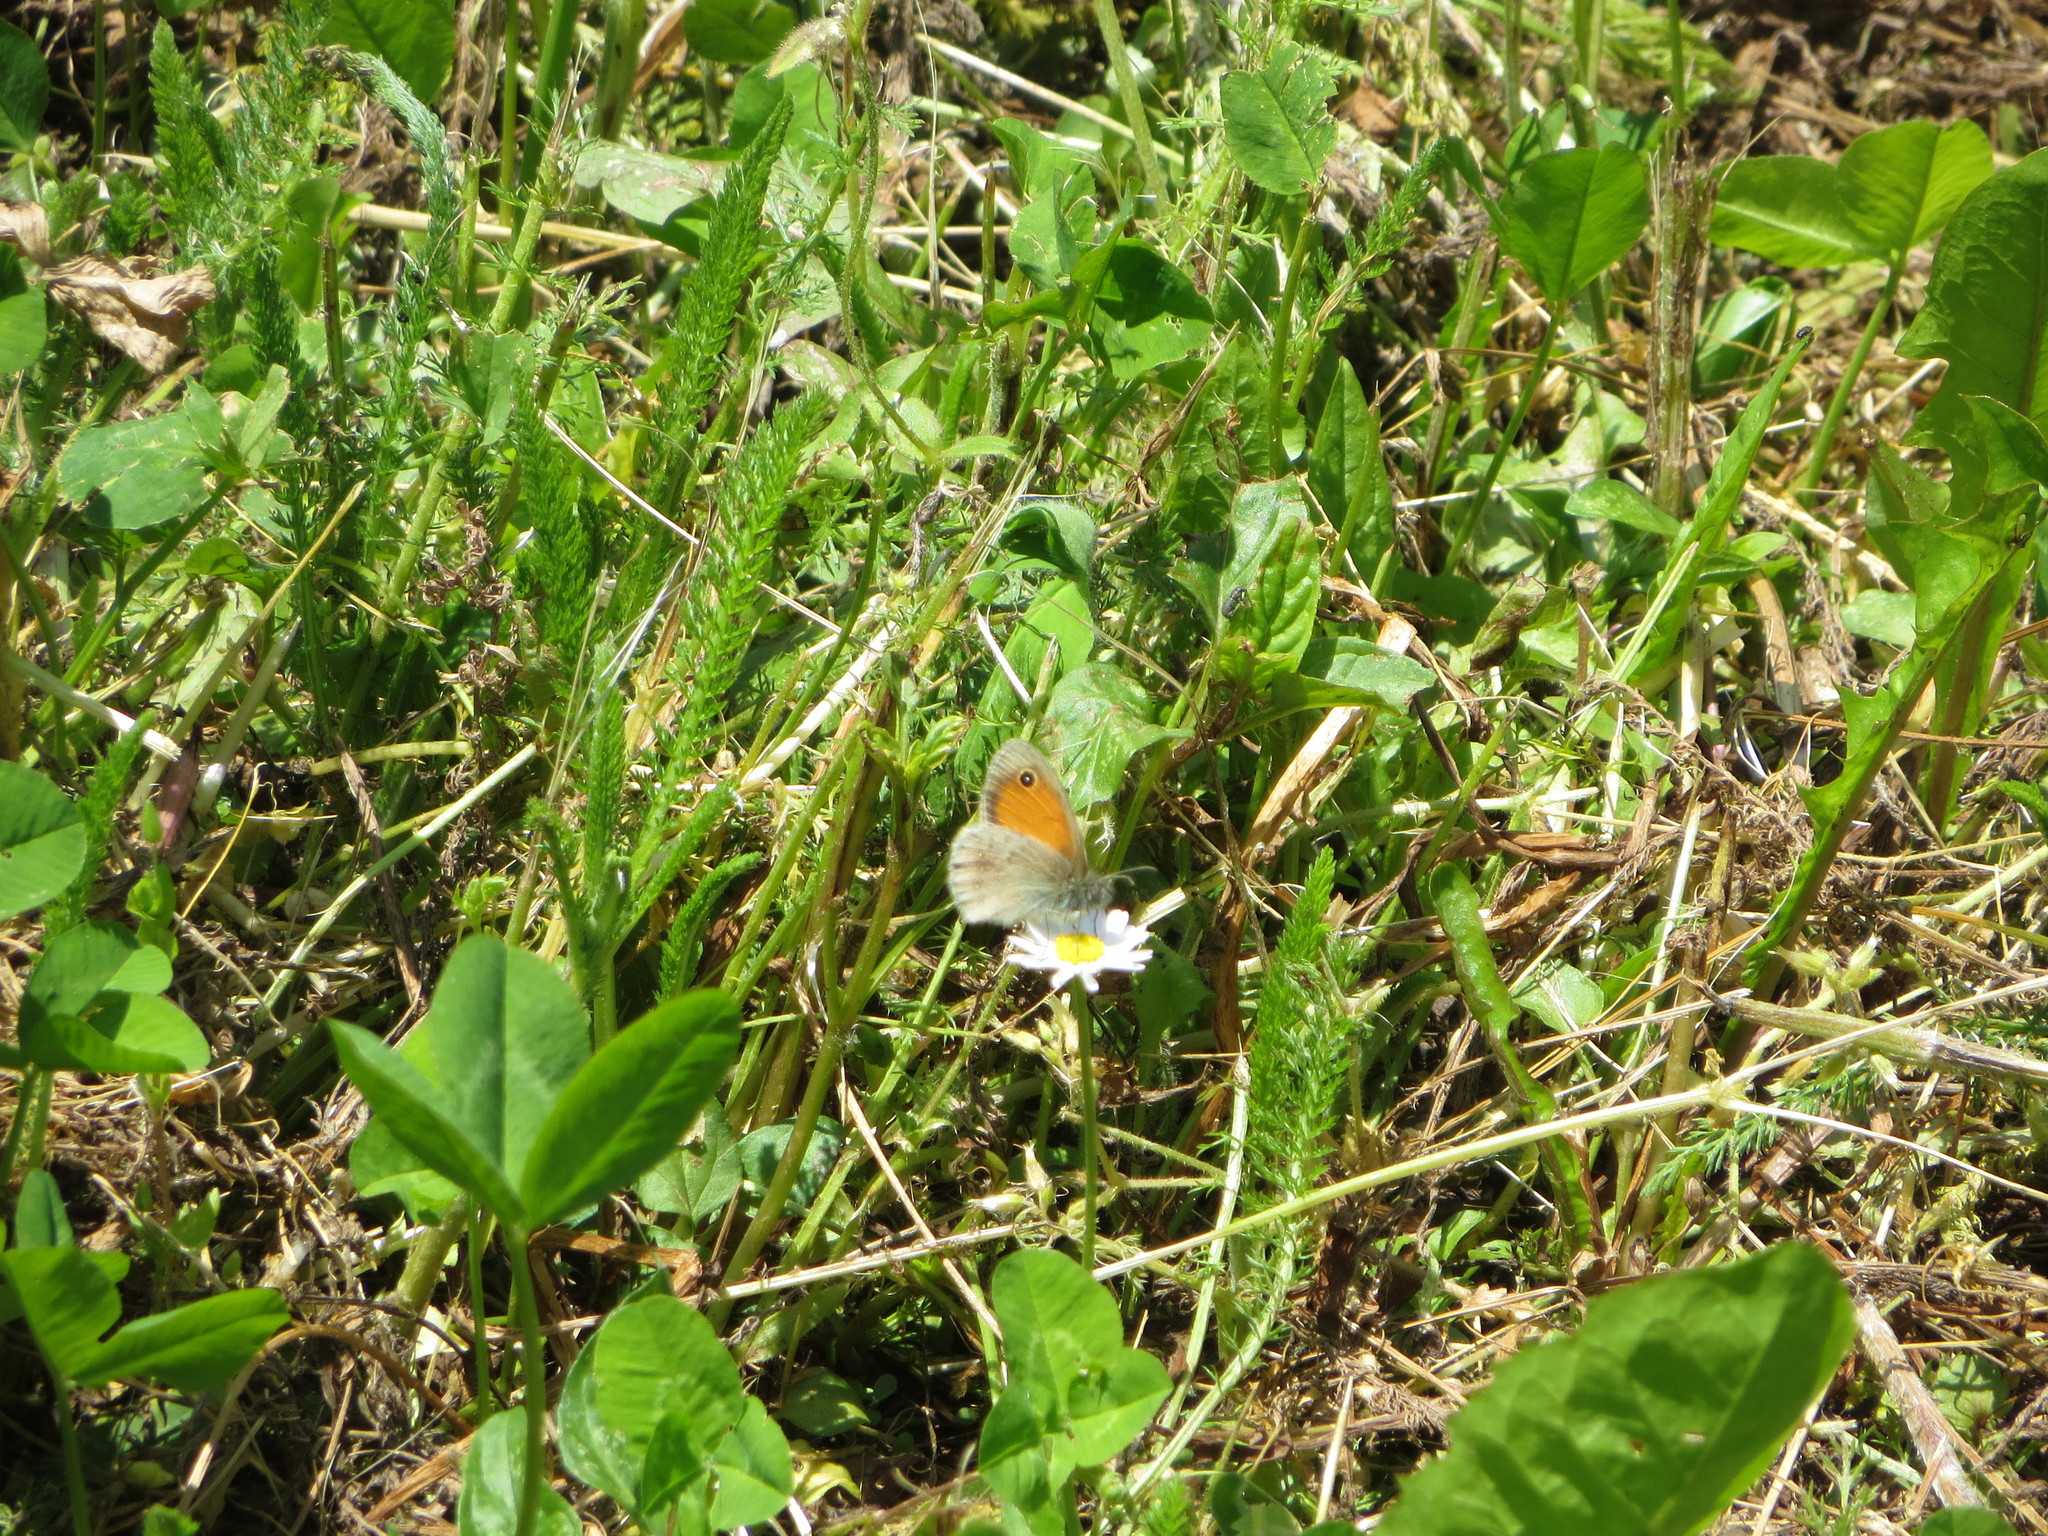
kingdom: Animalia
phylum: Arthropoda
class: Insecta
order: Lepidoptera
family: Nymphalidae
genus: Coenonympha
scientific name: Coenonympha pamphilus
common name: Small heath
